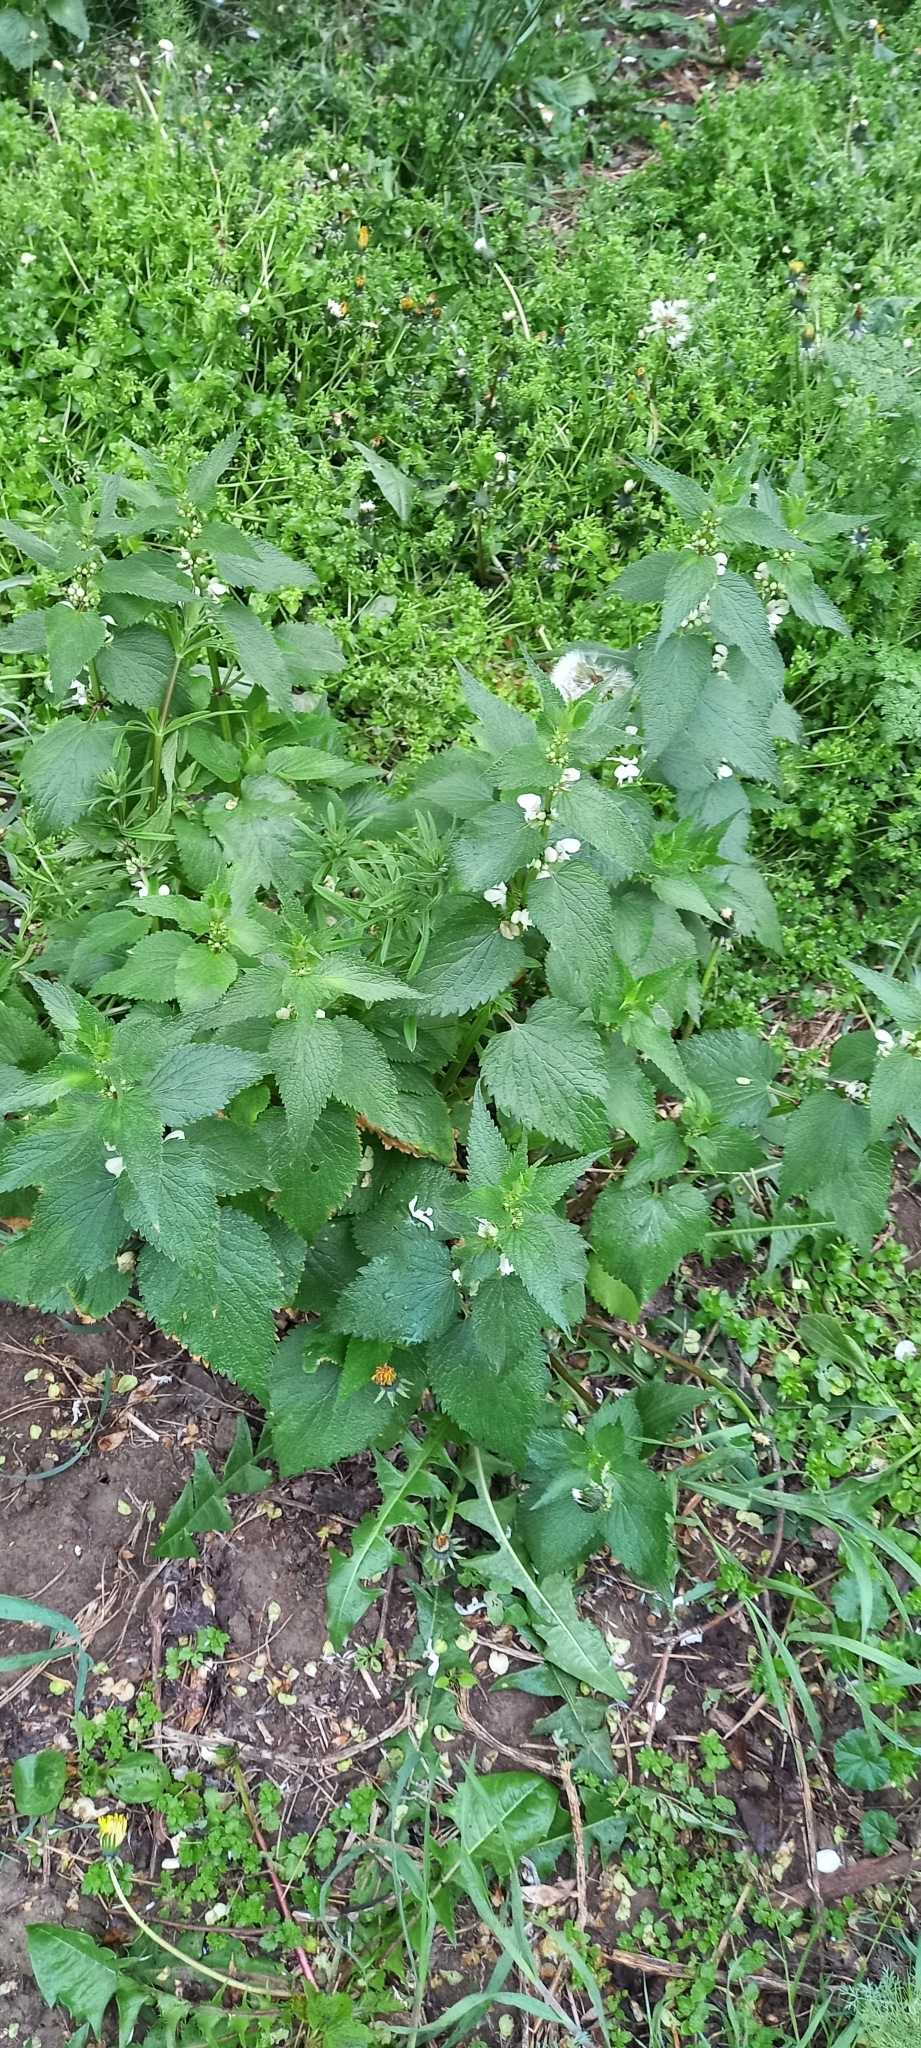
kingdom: Plantae
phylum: Tracheophyta
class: Magnoliopsida
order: Lamiales
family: Lamiaceae
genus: Lamium
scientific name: Lamium album
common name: White dead-nettle
